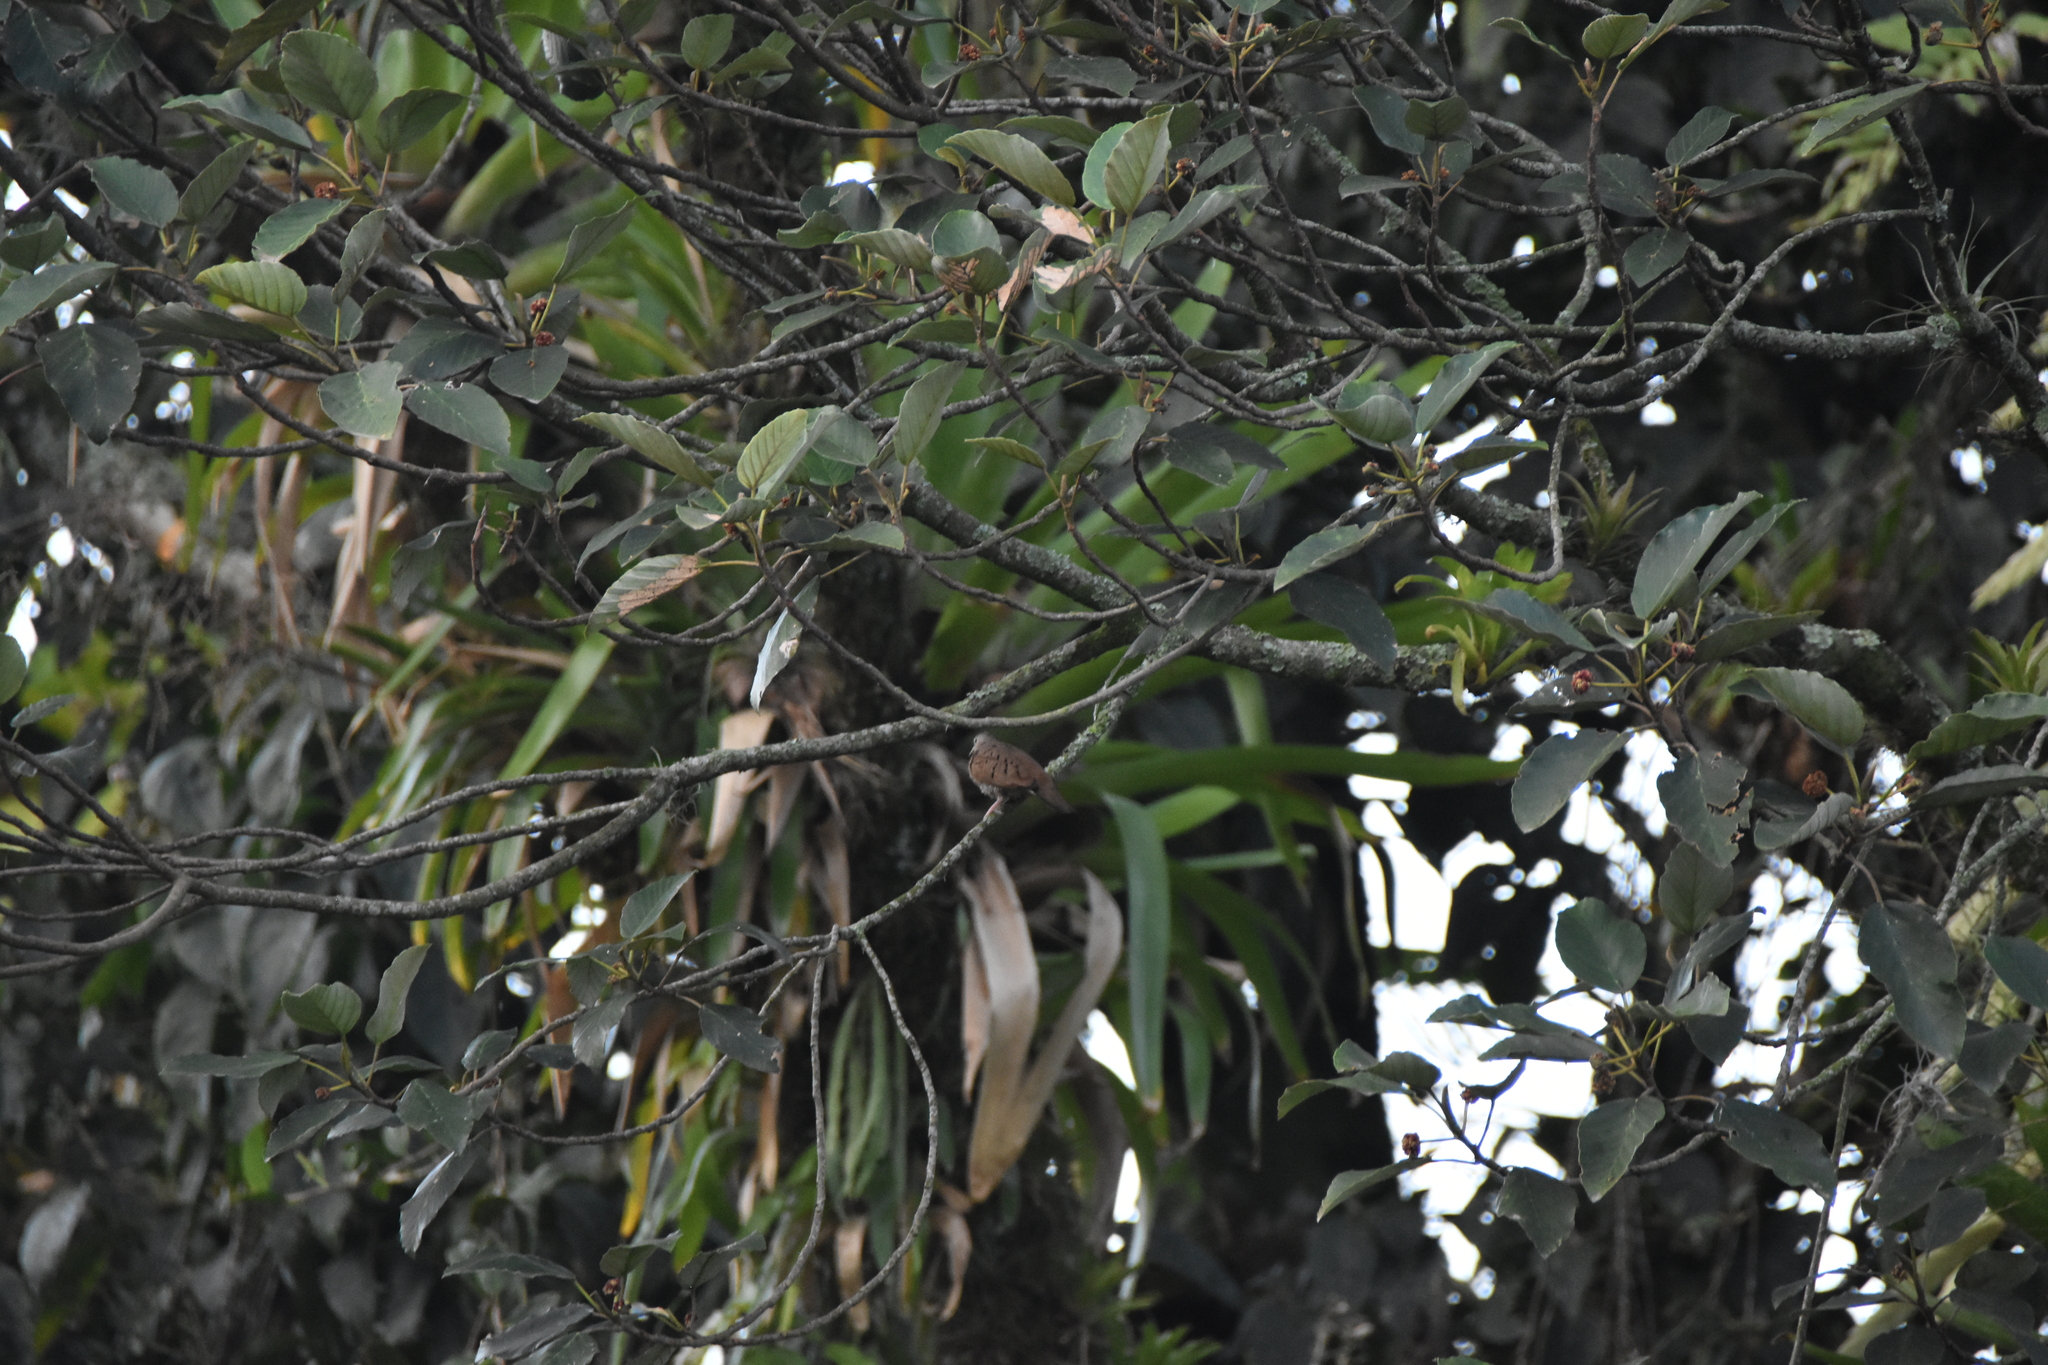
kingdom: Animalia
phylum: Chordata
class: Aves
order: Columbiformes
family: Columbidae
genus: Columbina
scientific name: Columbina talpacoti
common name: Ruddy ground dove
